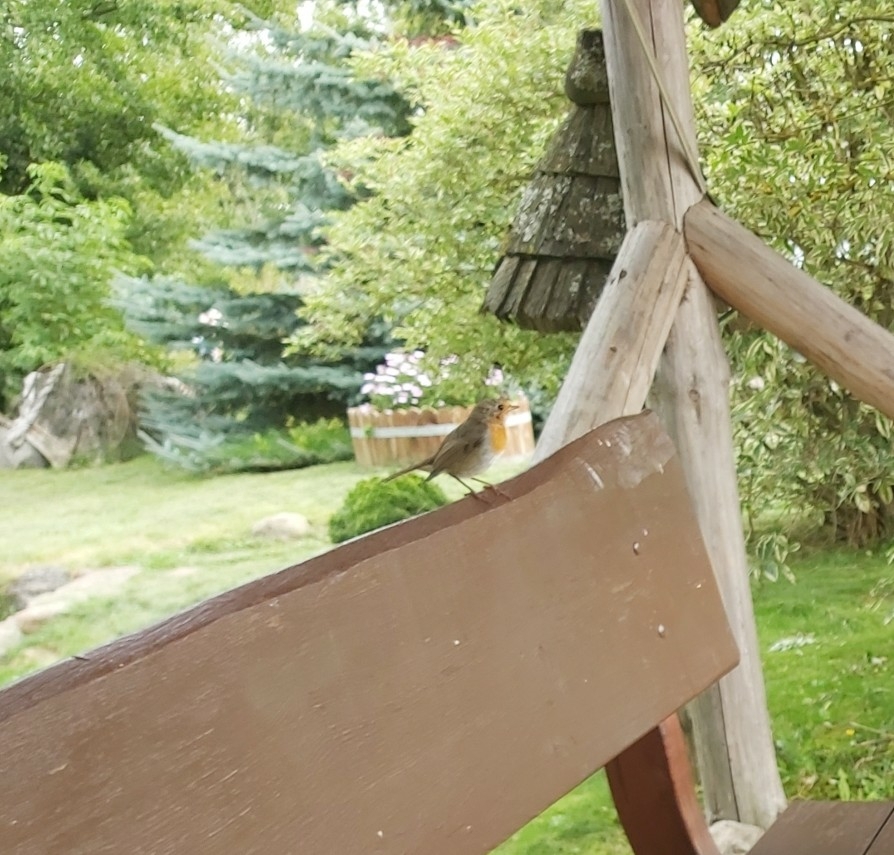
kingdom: Animalia
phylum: Chordata
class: Aves
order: Passeriformes
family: Muscicapidae
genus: Erithacus
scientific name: Erithacus rubecula
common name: European robin
